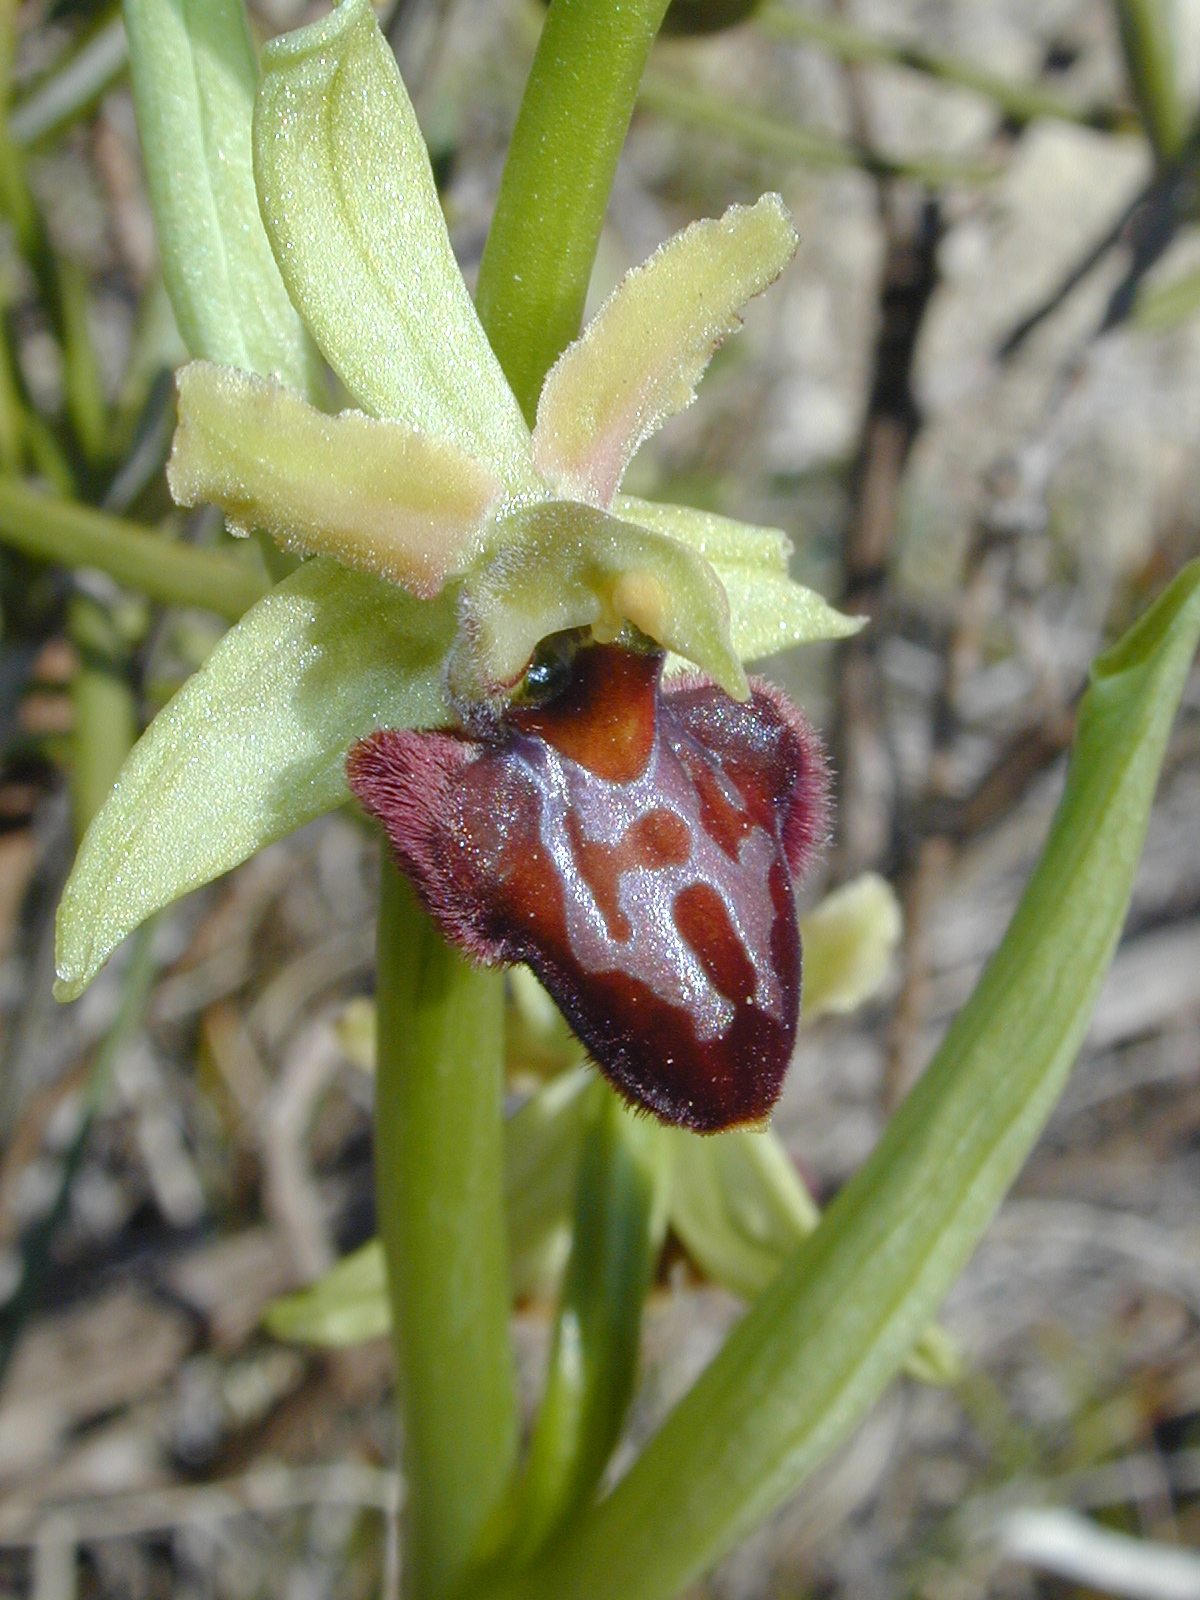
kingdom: Plantae
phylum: Tracheophyta
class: Liliopsida
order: Asparagales
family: Orchidaceae
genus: Ophrys
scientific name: Ophrys sphegodes
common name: Early spider-orchid
